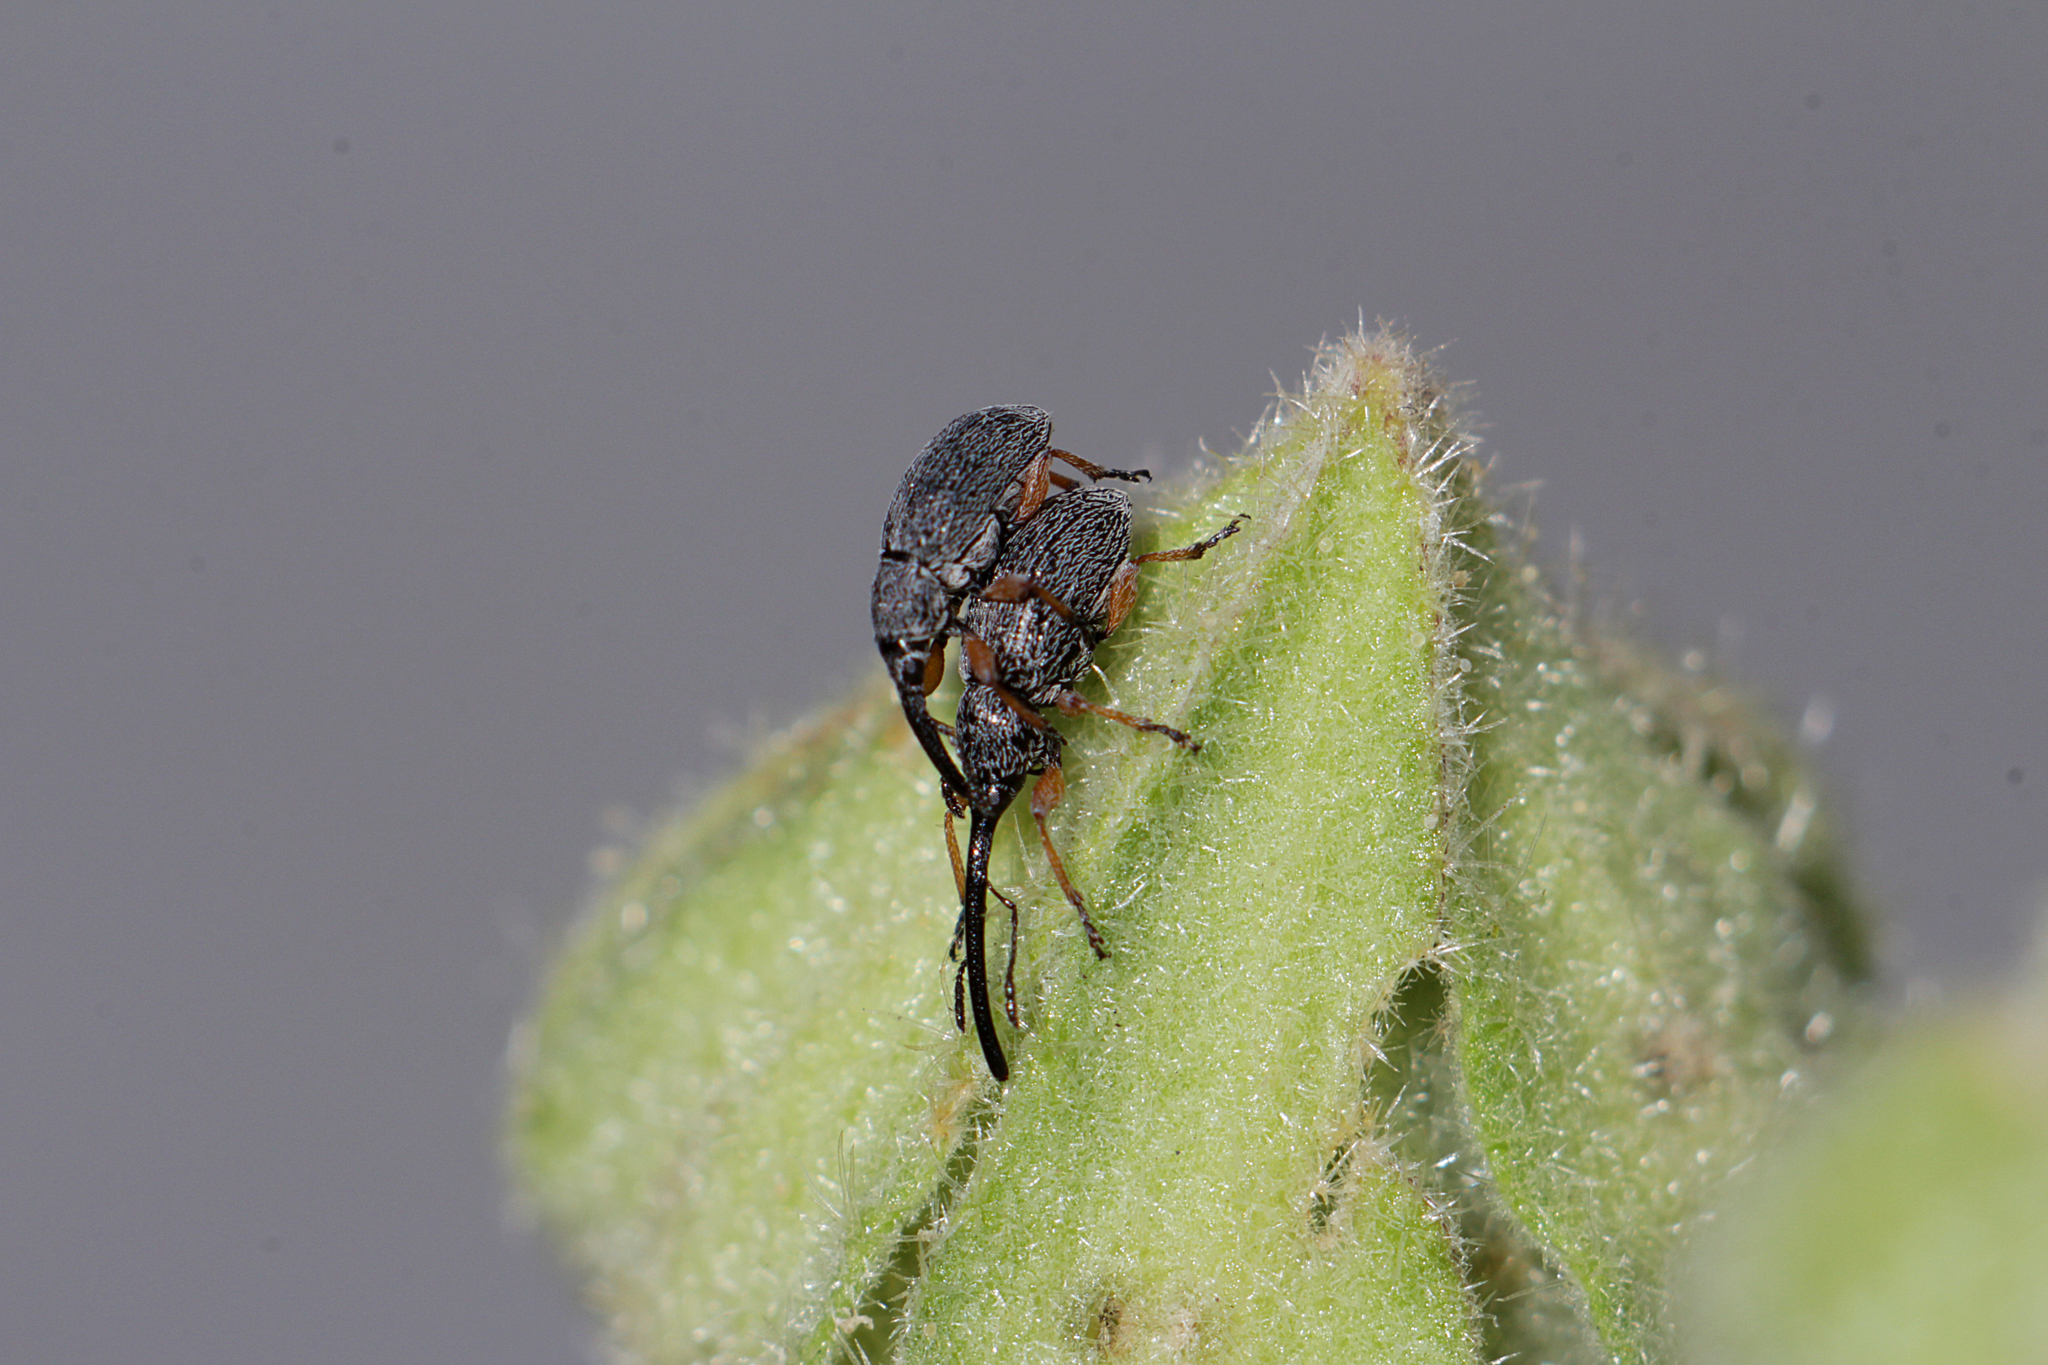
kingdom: Animalia
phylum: Arthropoda
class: Insecta
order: Coleoptera
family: Brentidae
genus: Rhopalapion
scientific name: Rhopalapion longirostre
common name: Hollyhock weevil
